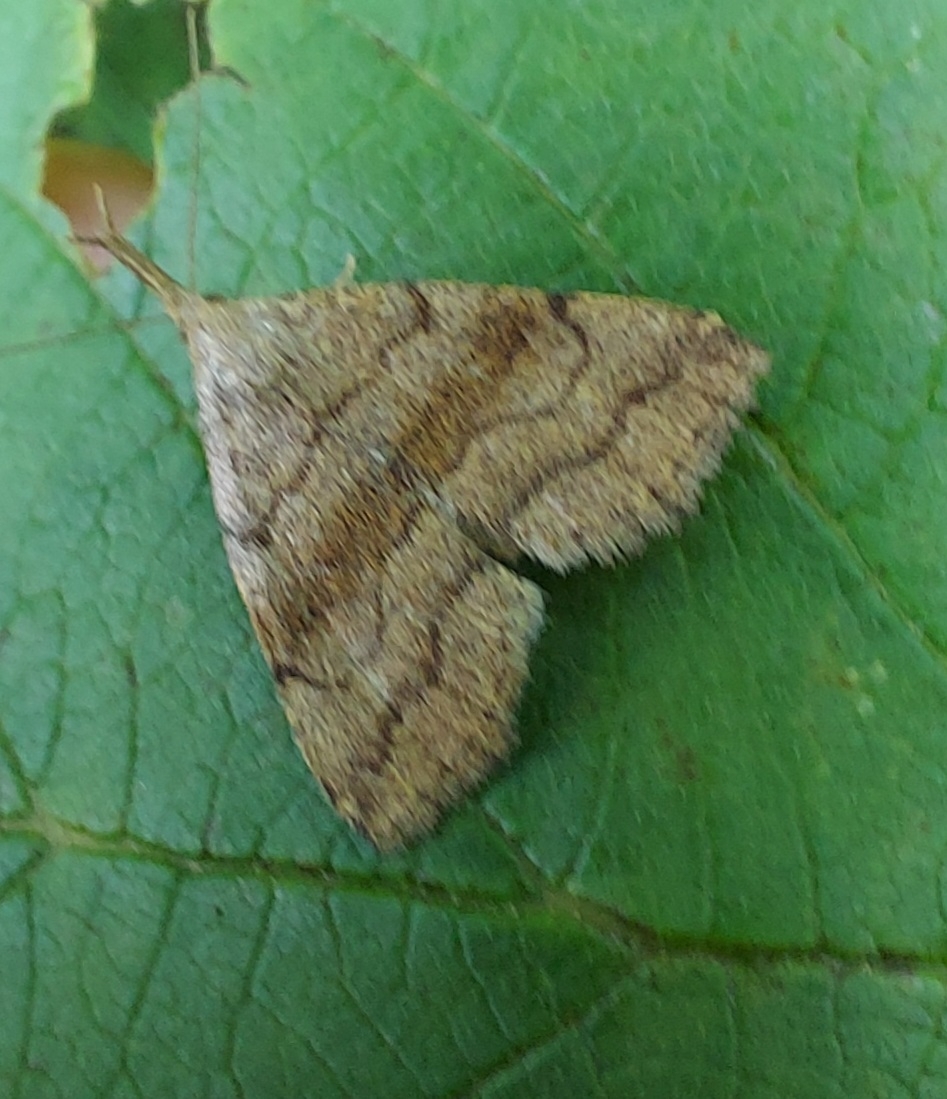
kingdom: Animalia
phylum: Arthropoda
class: Insecta
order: Lepidoptera
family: Erebidae
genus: Phalaenostola
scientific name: Phalaenostola metonalis
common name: Pale phalaenostola moth
